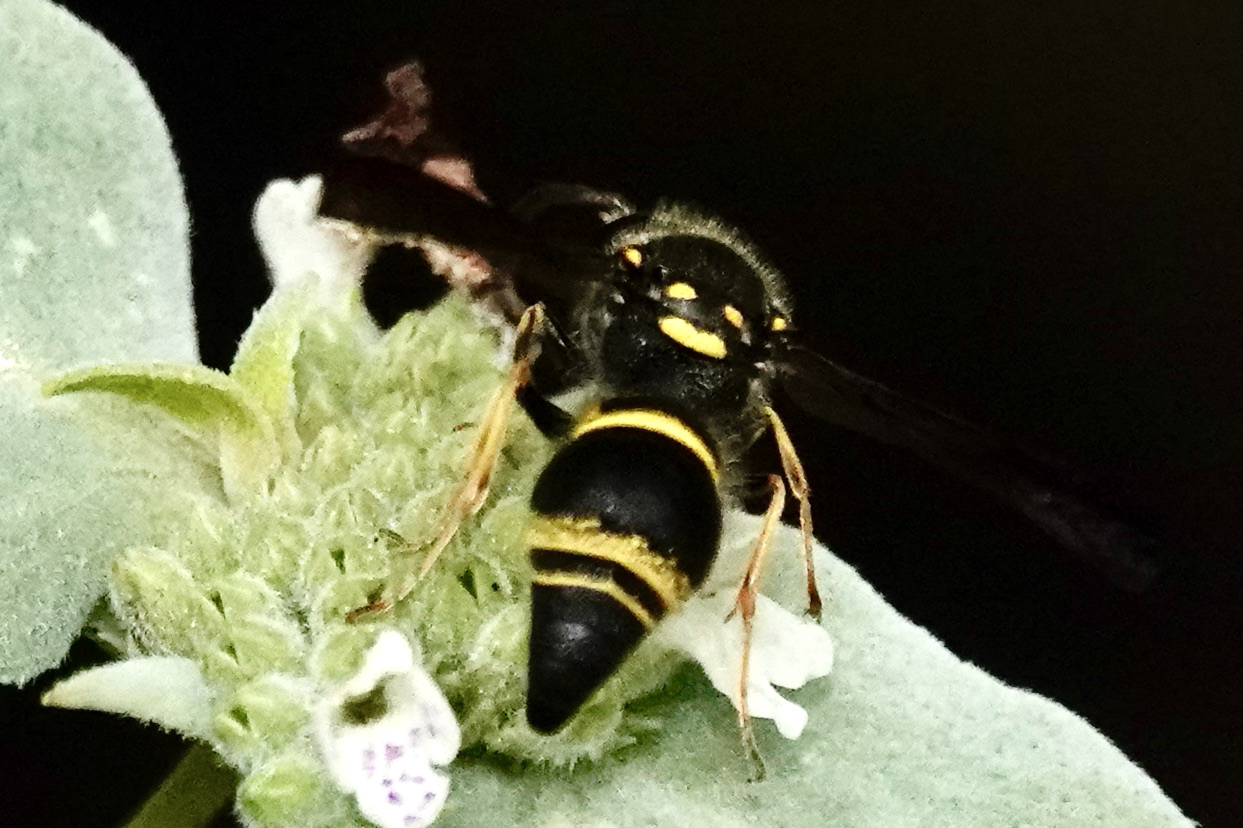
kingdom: Animalia
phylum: Arthropoda
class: Insecta
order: Hymenoptera
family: Vespidae
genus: Ancistrocerus
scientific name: Ancistrocerus campestris
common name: Smiling mason wasp
